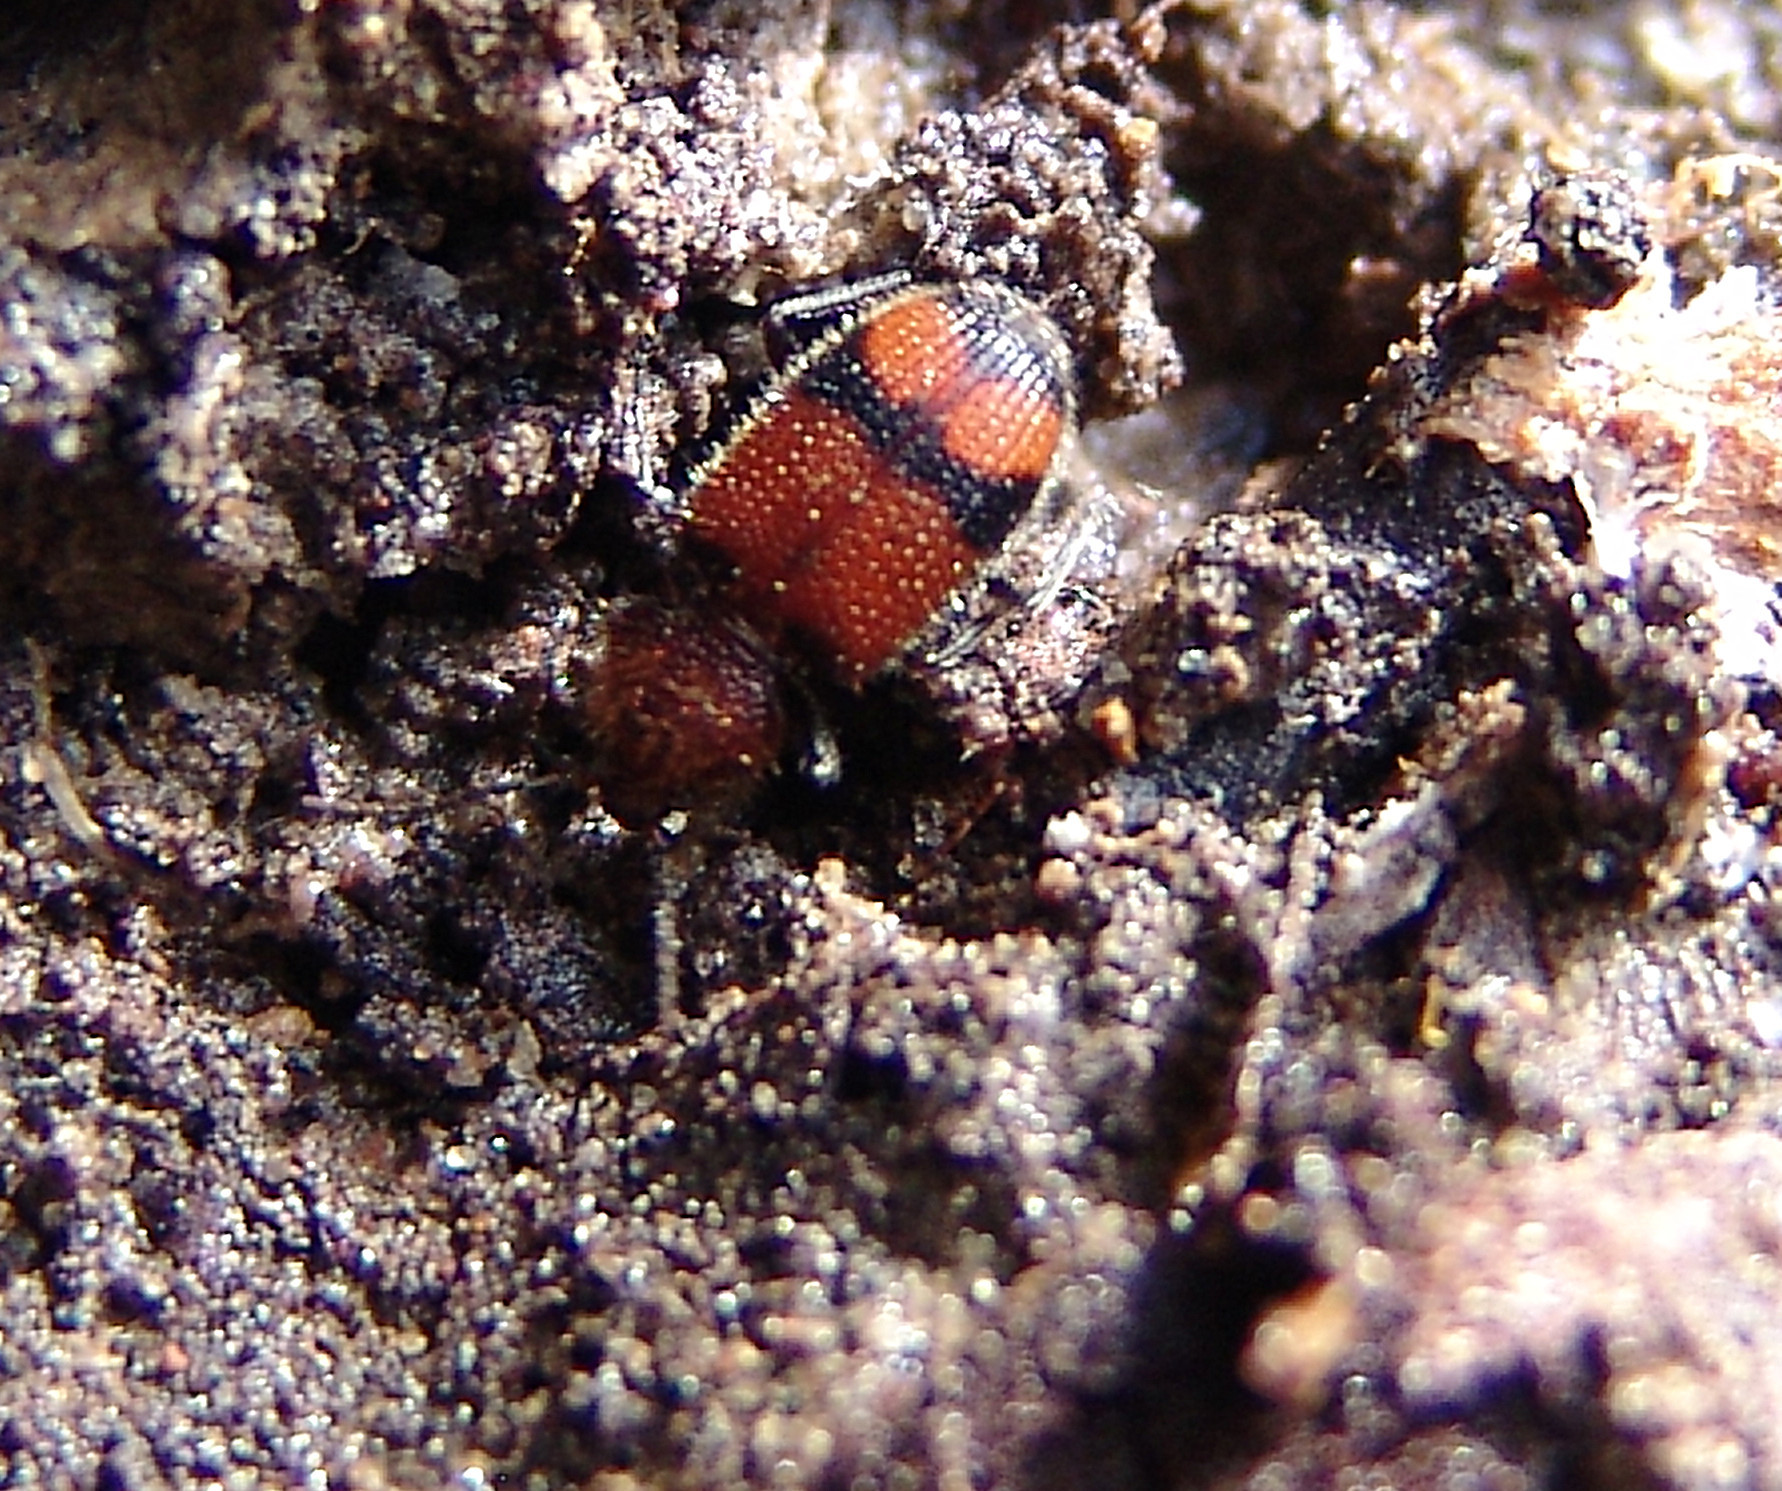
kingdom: Animalia
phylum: Arthropoda
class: Insecta
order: Coleoptera
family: Carabidae
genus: Panagaeus
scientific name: Panagaeus fasciatus
